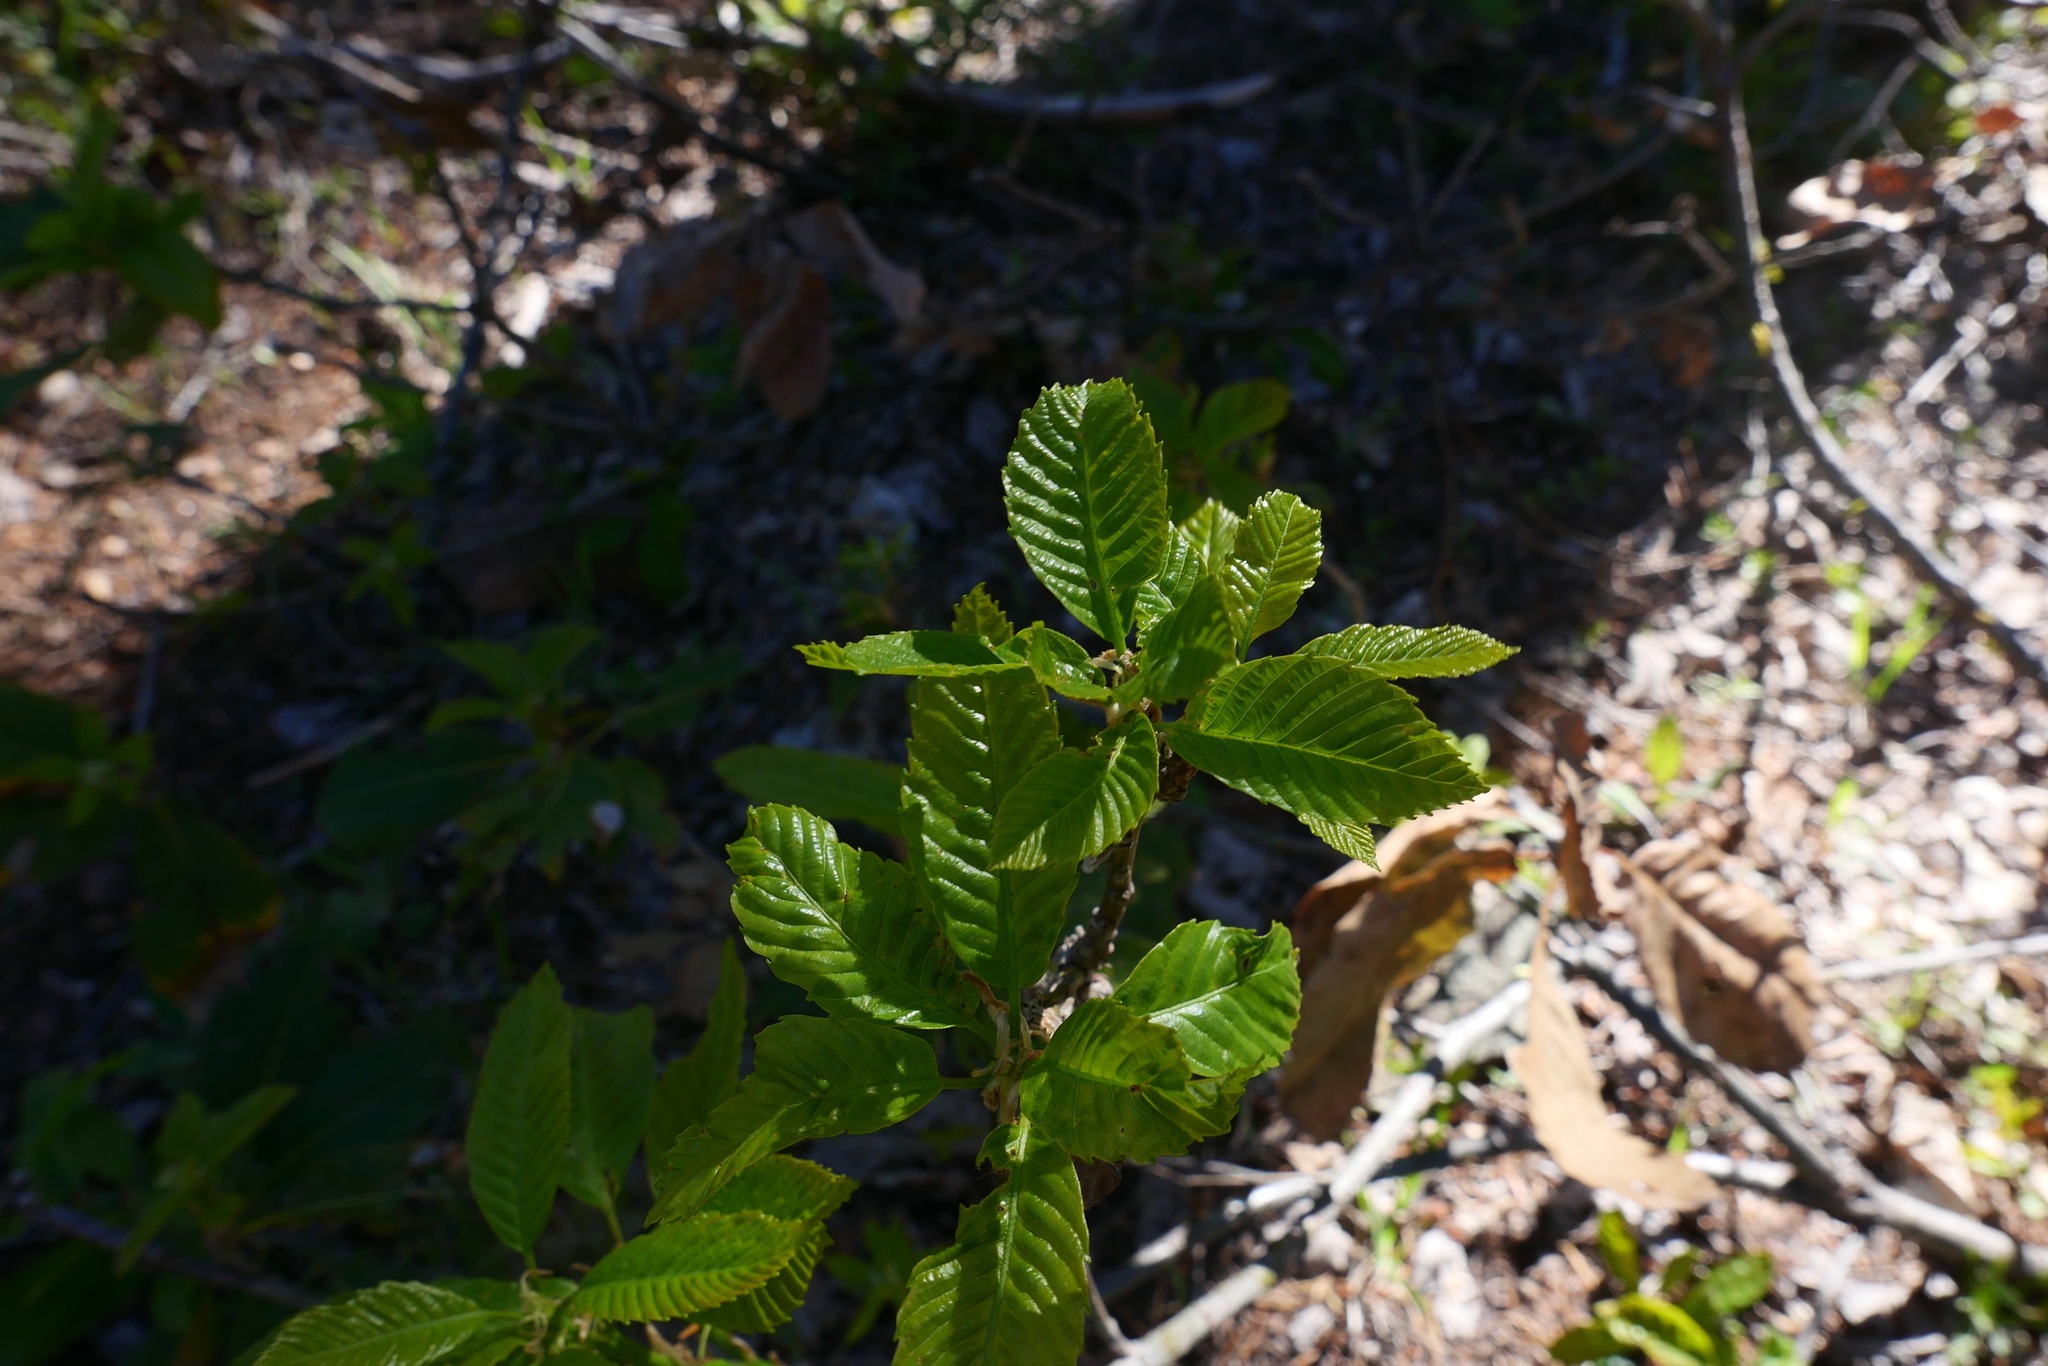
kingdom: Plantae
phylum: Tracheophyta
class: Magnoliopsida
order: Fagales
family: Fagaceae
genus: Quercus
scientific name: Quercus sadleriana
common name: Deer oak
